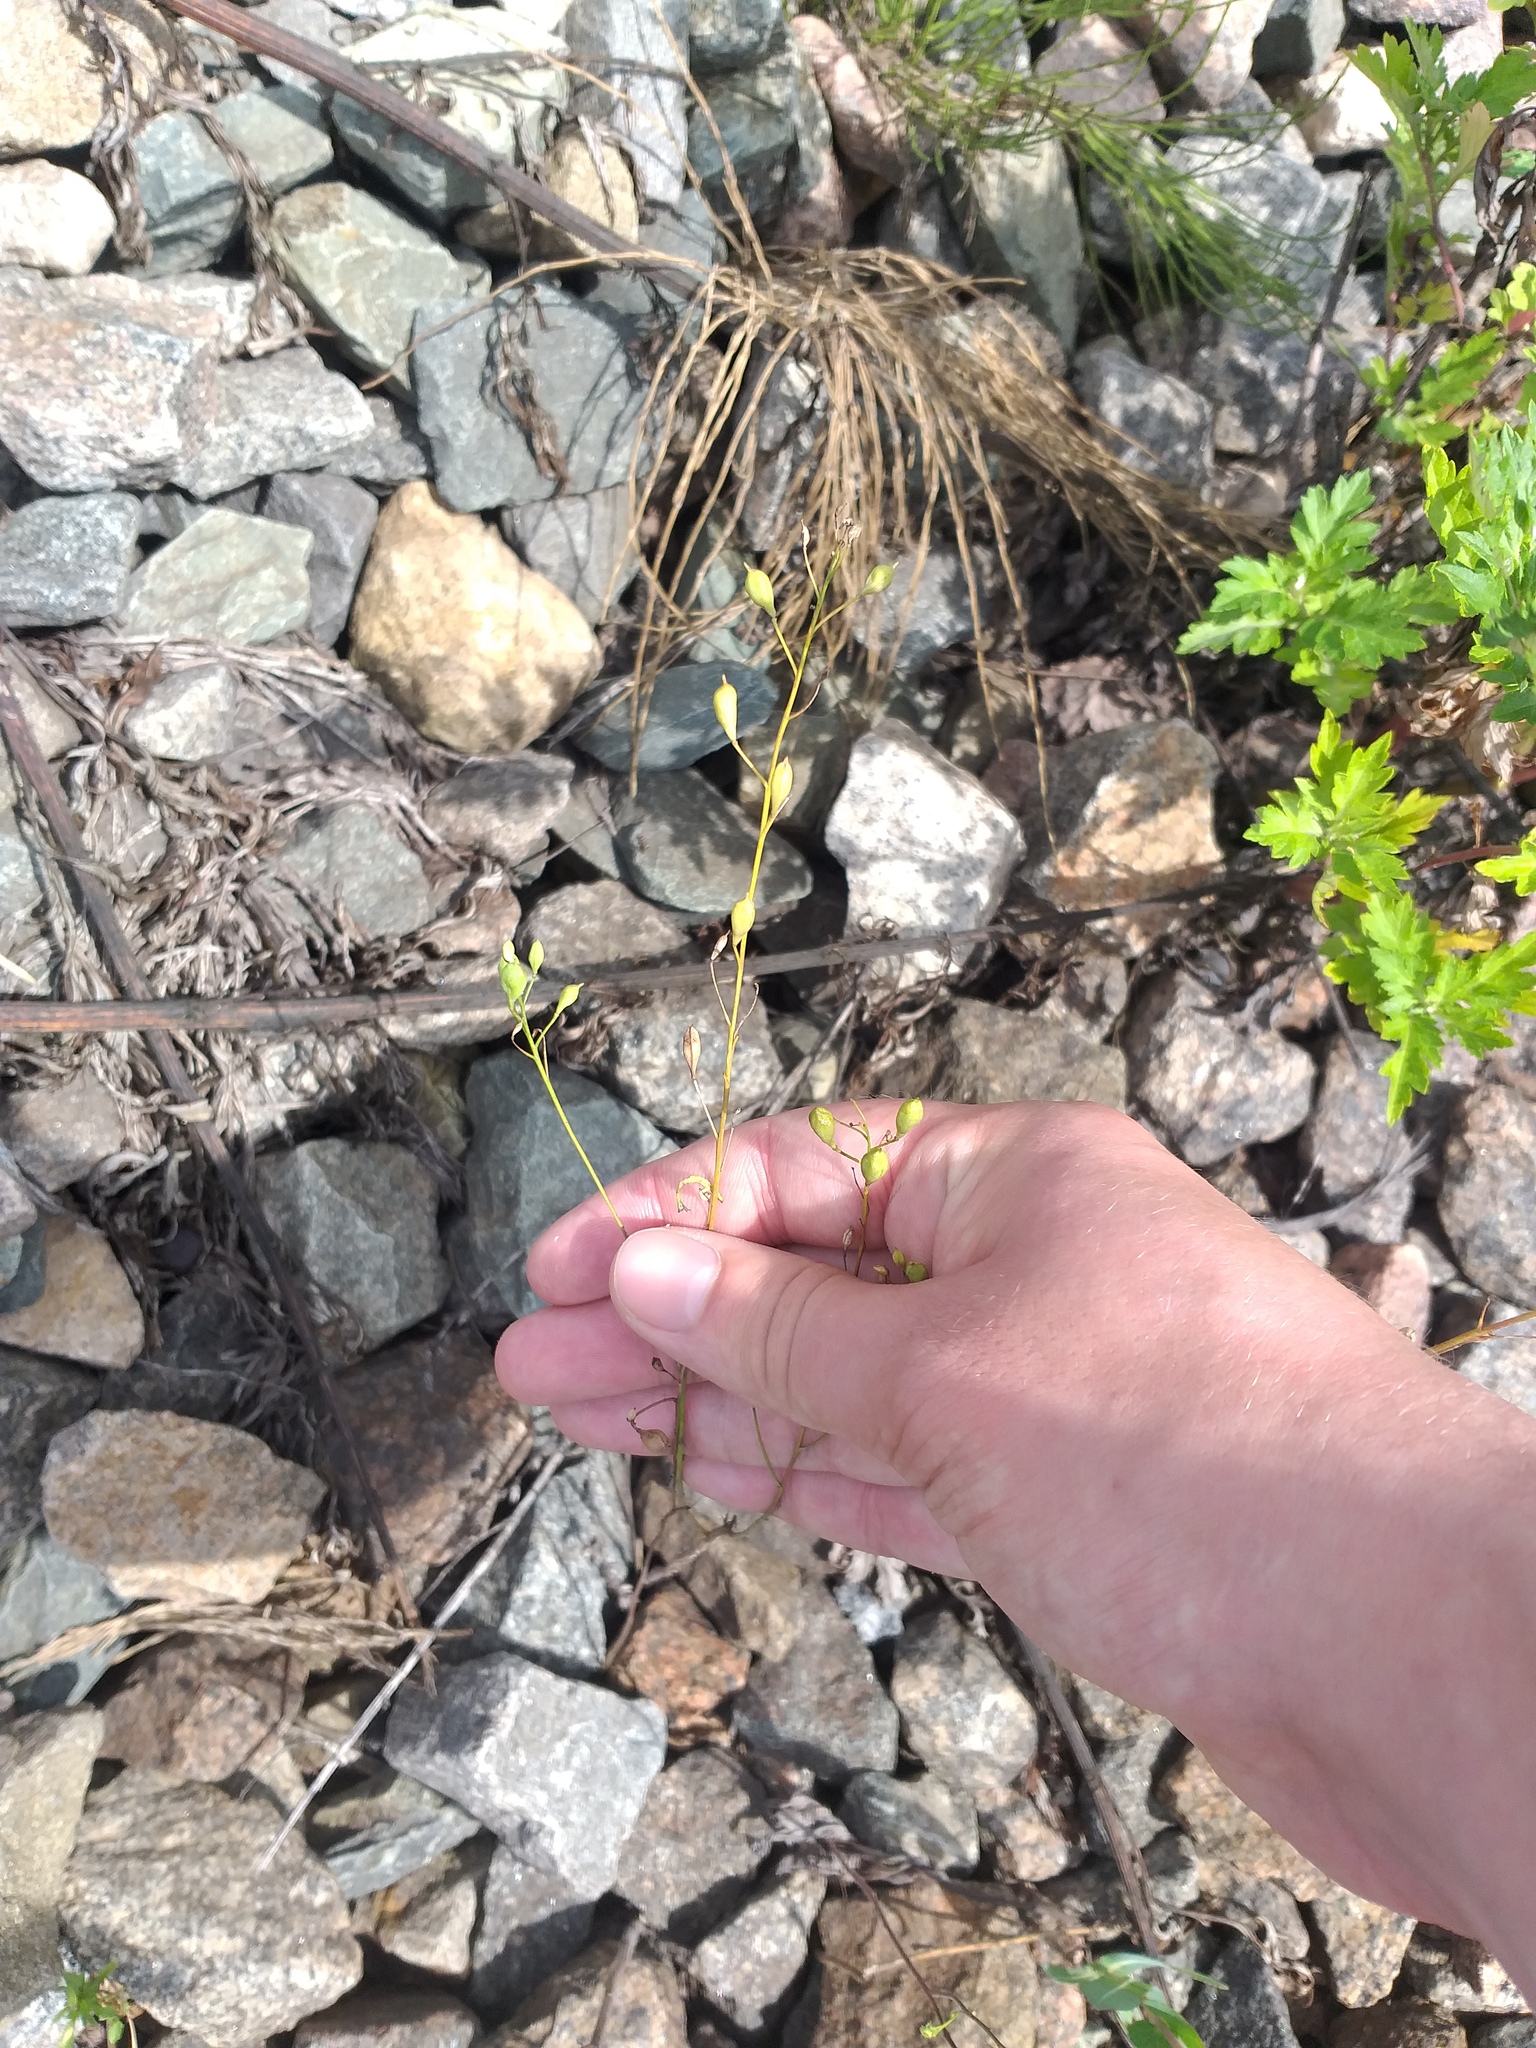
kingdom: Plantae
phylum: Tracheophyta
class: Magnoliopsida
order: Brassicales
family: Brassicaceae
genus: Camelina
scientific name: Camelina sativa
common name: Gold-of-pleasure
